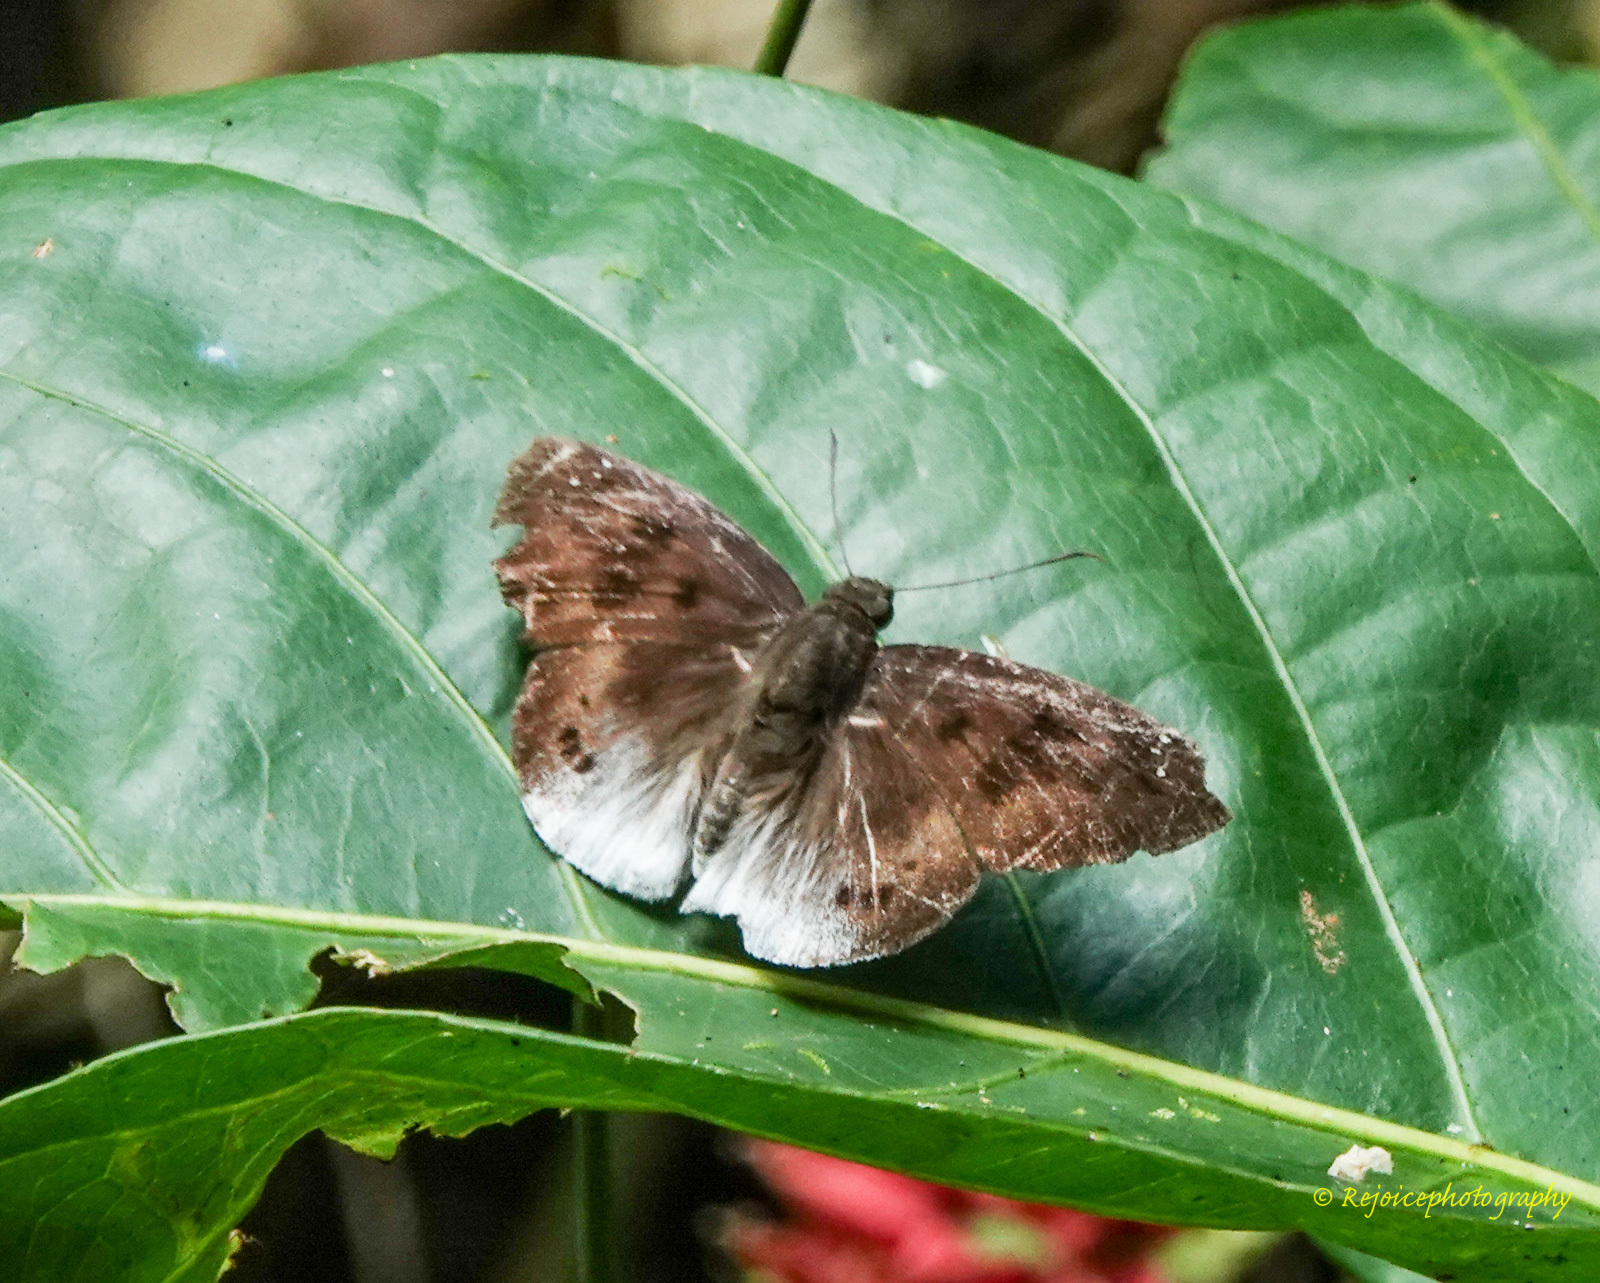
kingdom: Animalia
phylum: Arthropoda
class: Insecta
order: Lepidoptera
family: Hesperiidae
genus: Tagiades
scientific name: Tagiades gana
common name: Suffused snow flat
